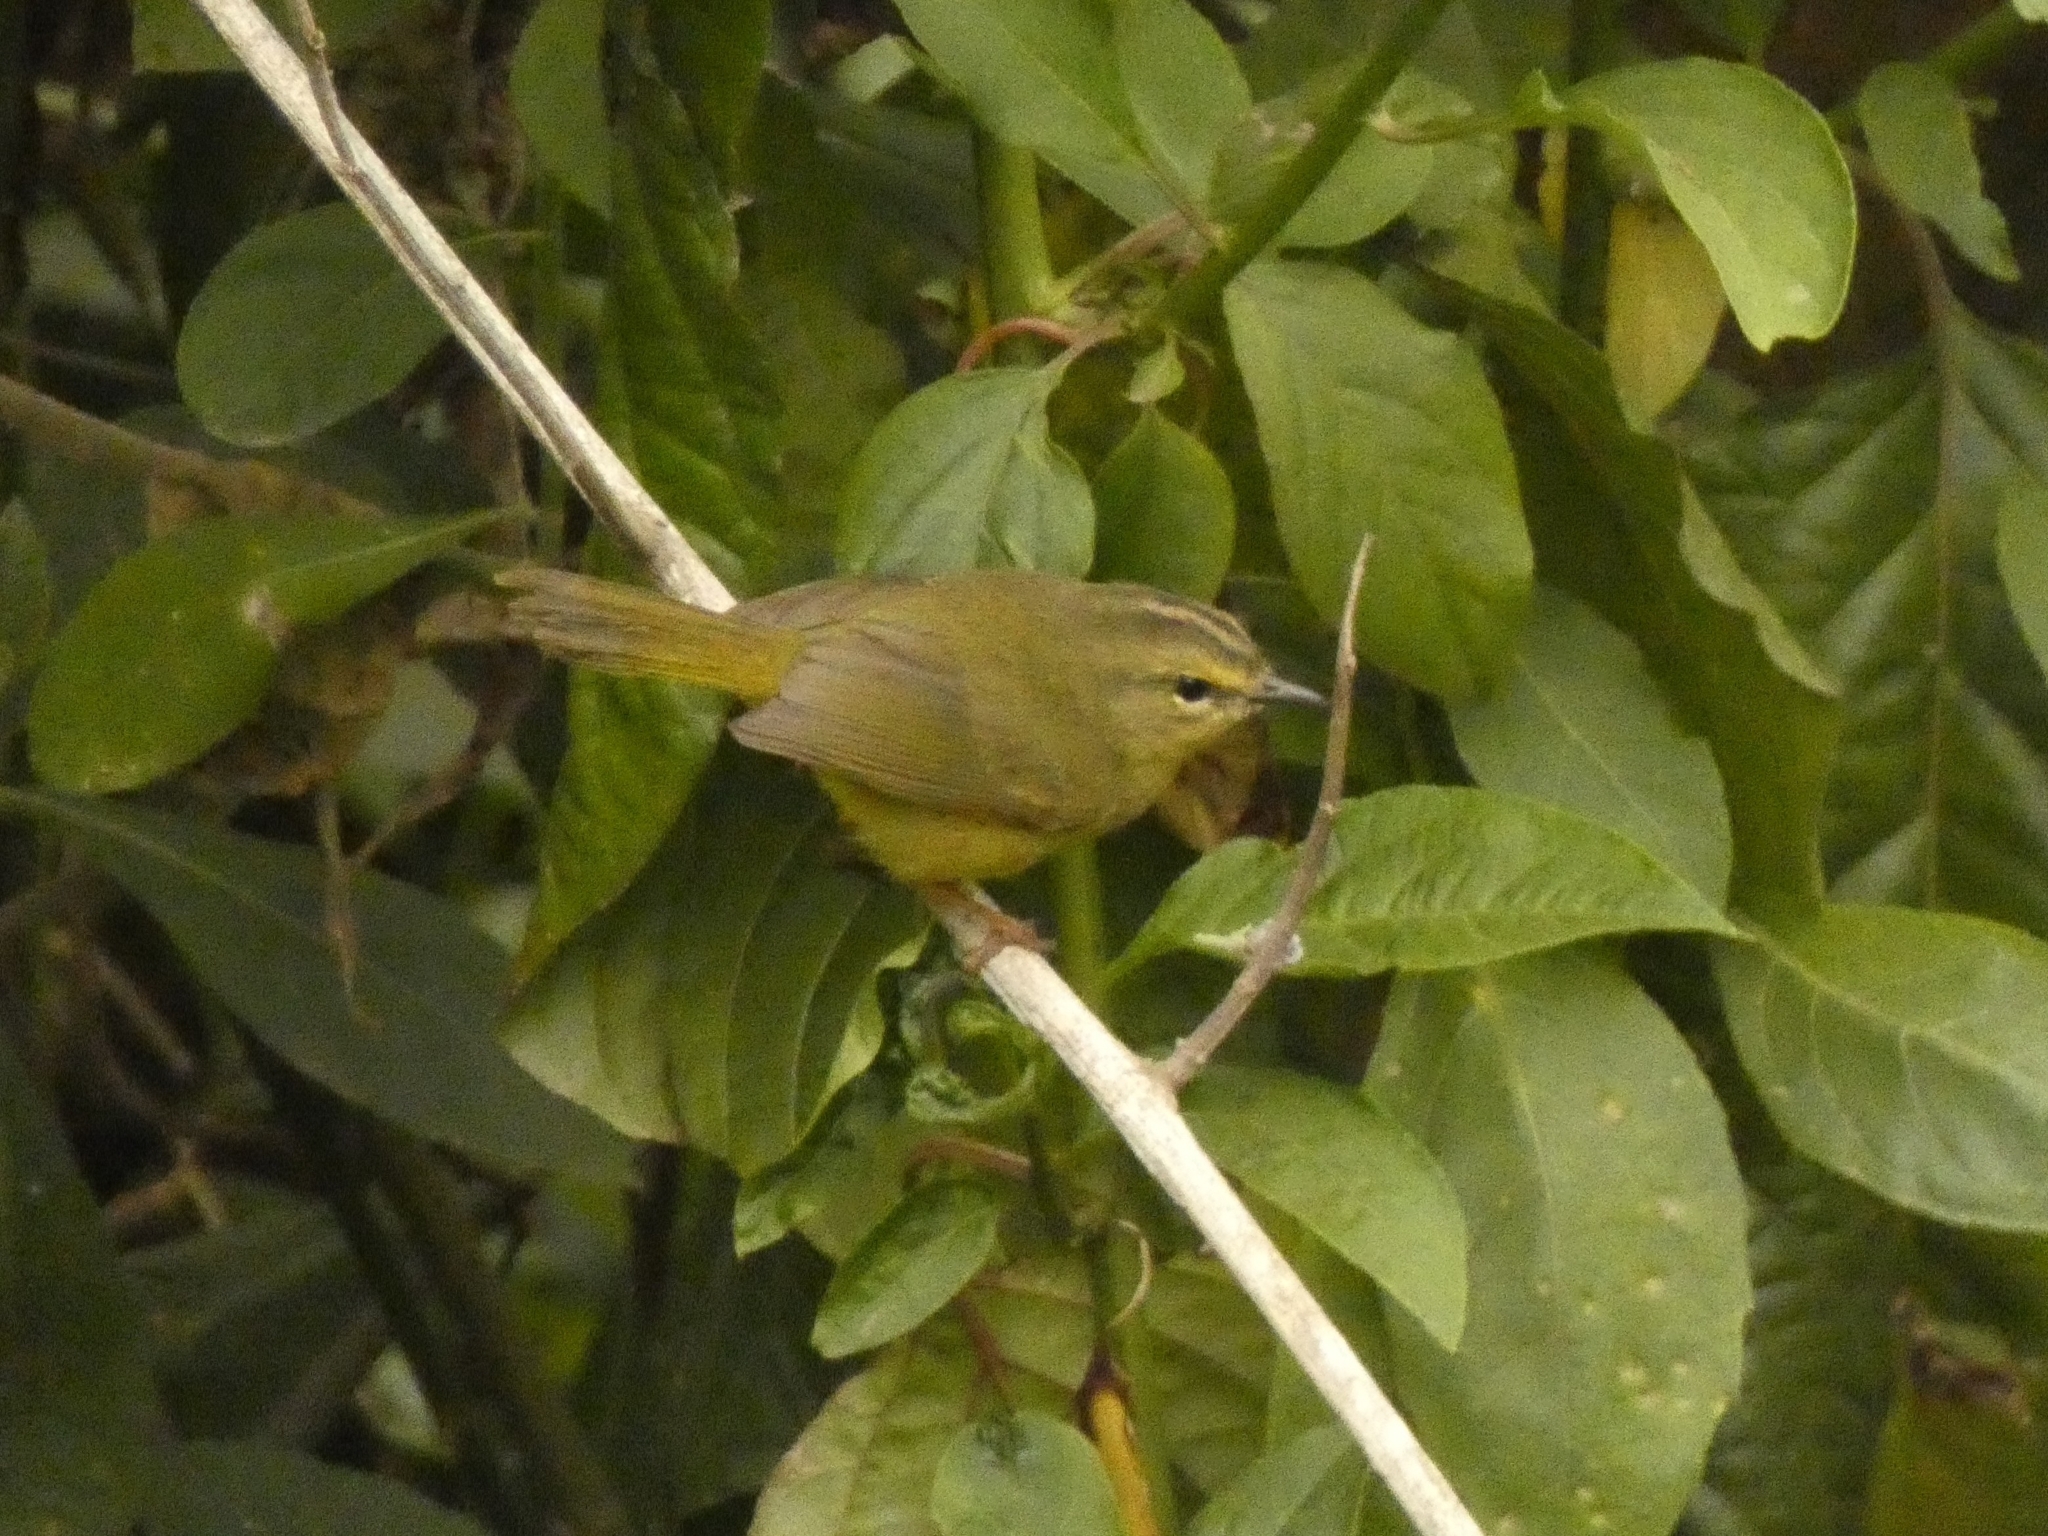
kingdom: Animalia
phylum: Chordata
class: Aves
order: Passeriformes
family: Parulidae
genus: Myiothlypis
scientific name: Myiothlypis bivittata
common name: Two-banded warbler
